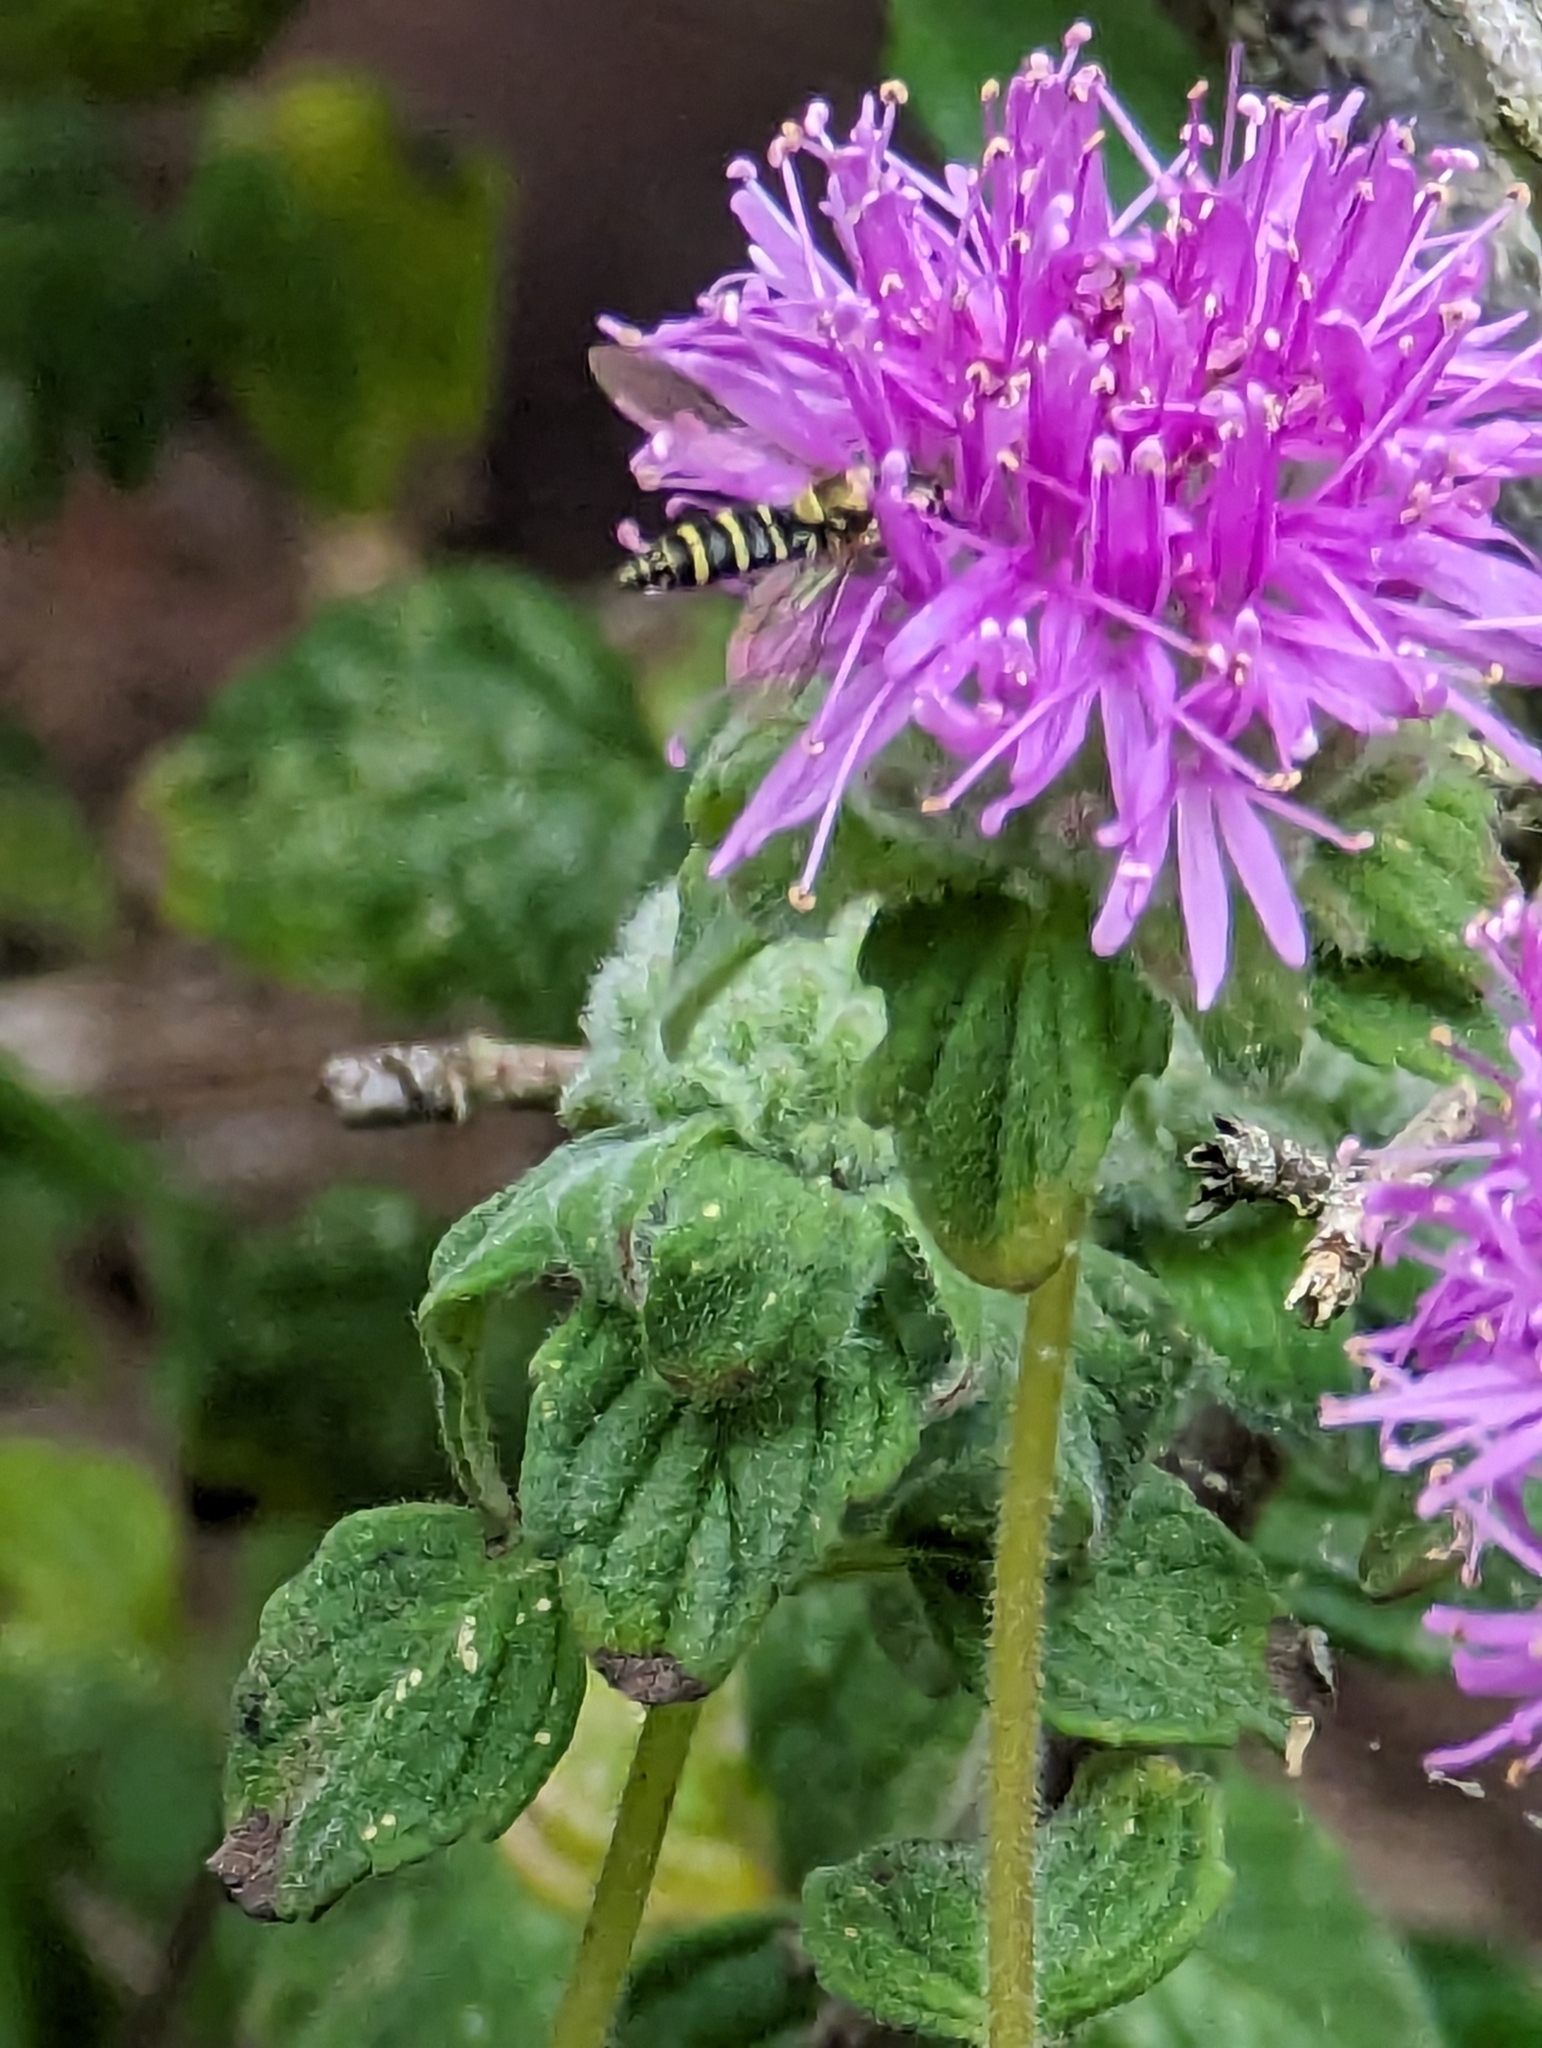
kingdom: Animalia
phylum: Arthropoda
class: Insecta
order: Diptera
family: Syrphidae
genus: Fazia
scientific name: Fazia micrura
